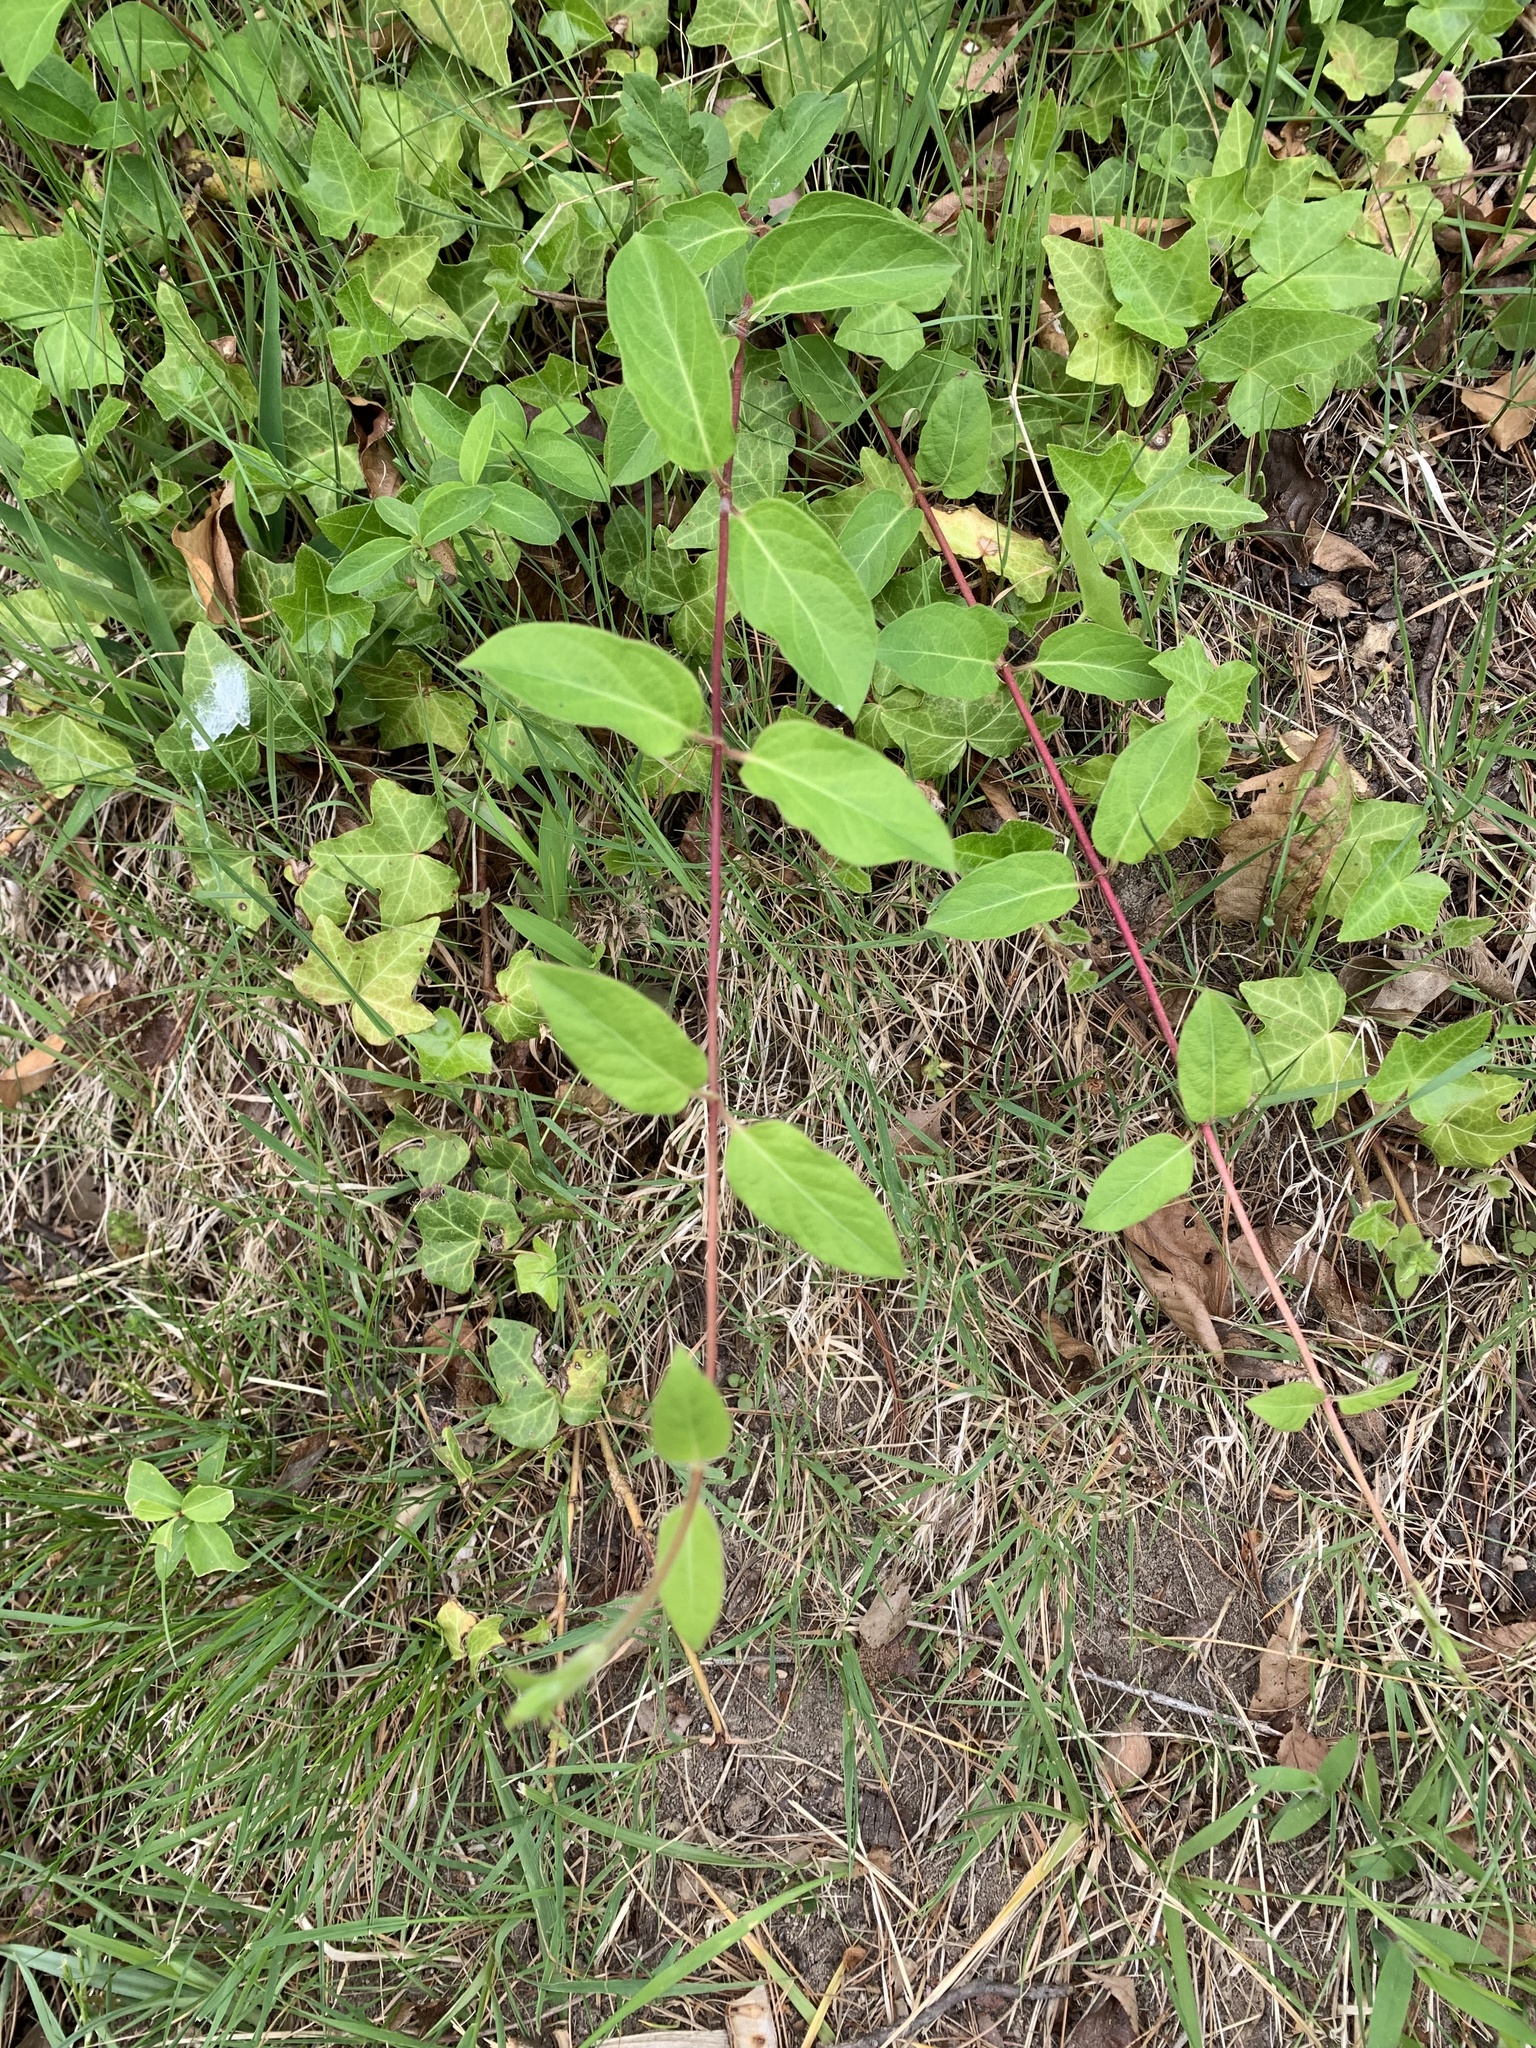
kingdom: Plantae
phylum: Tracheophyta
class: Magnoliopsida
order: Dipsacales
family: Caprifoliaceae
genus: Lonicera
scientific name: Lonicera japonica
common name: Japanese honeysuckle
